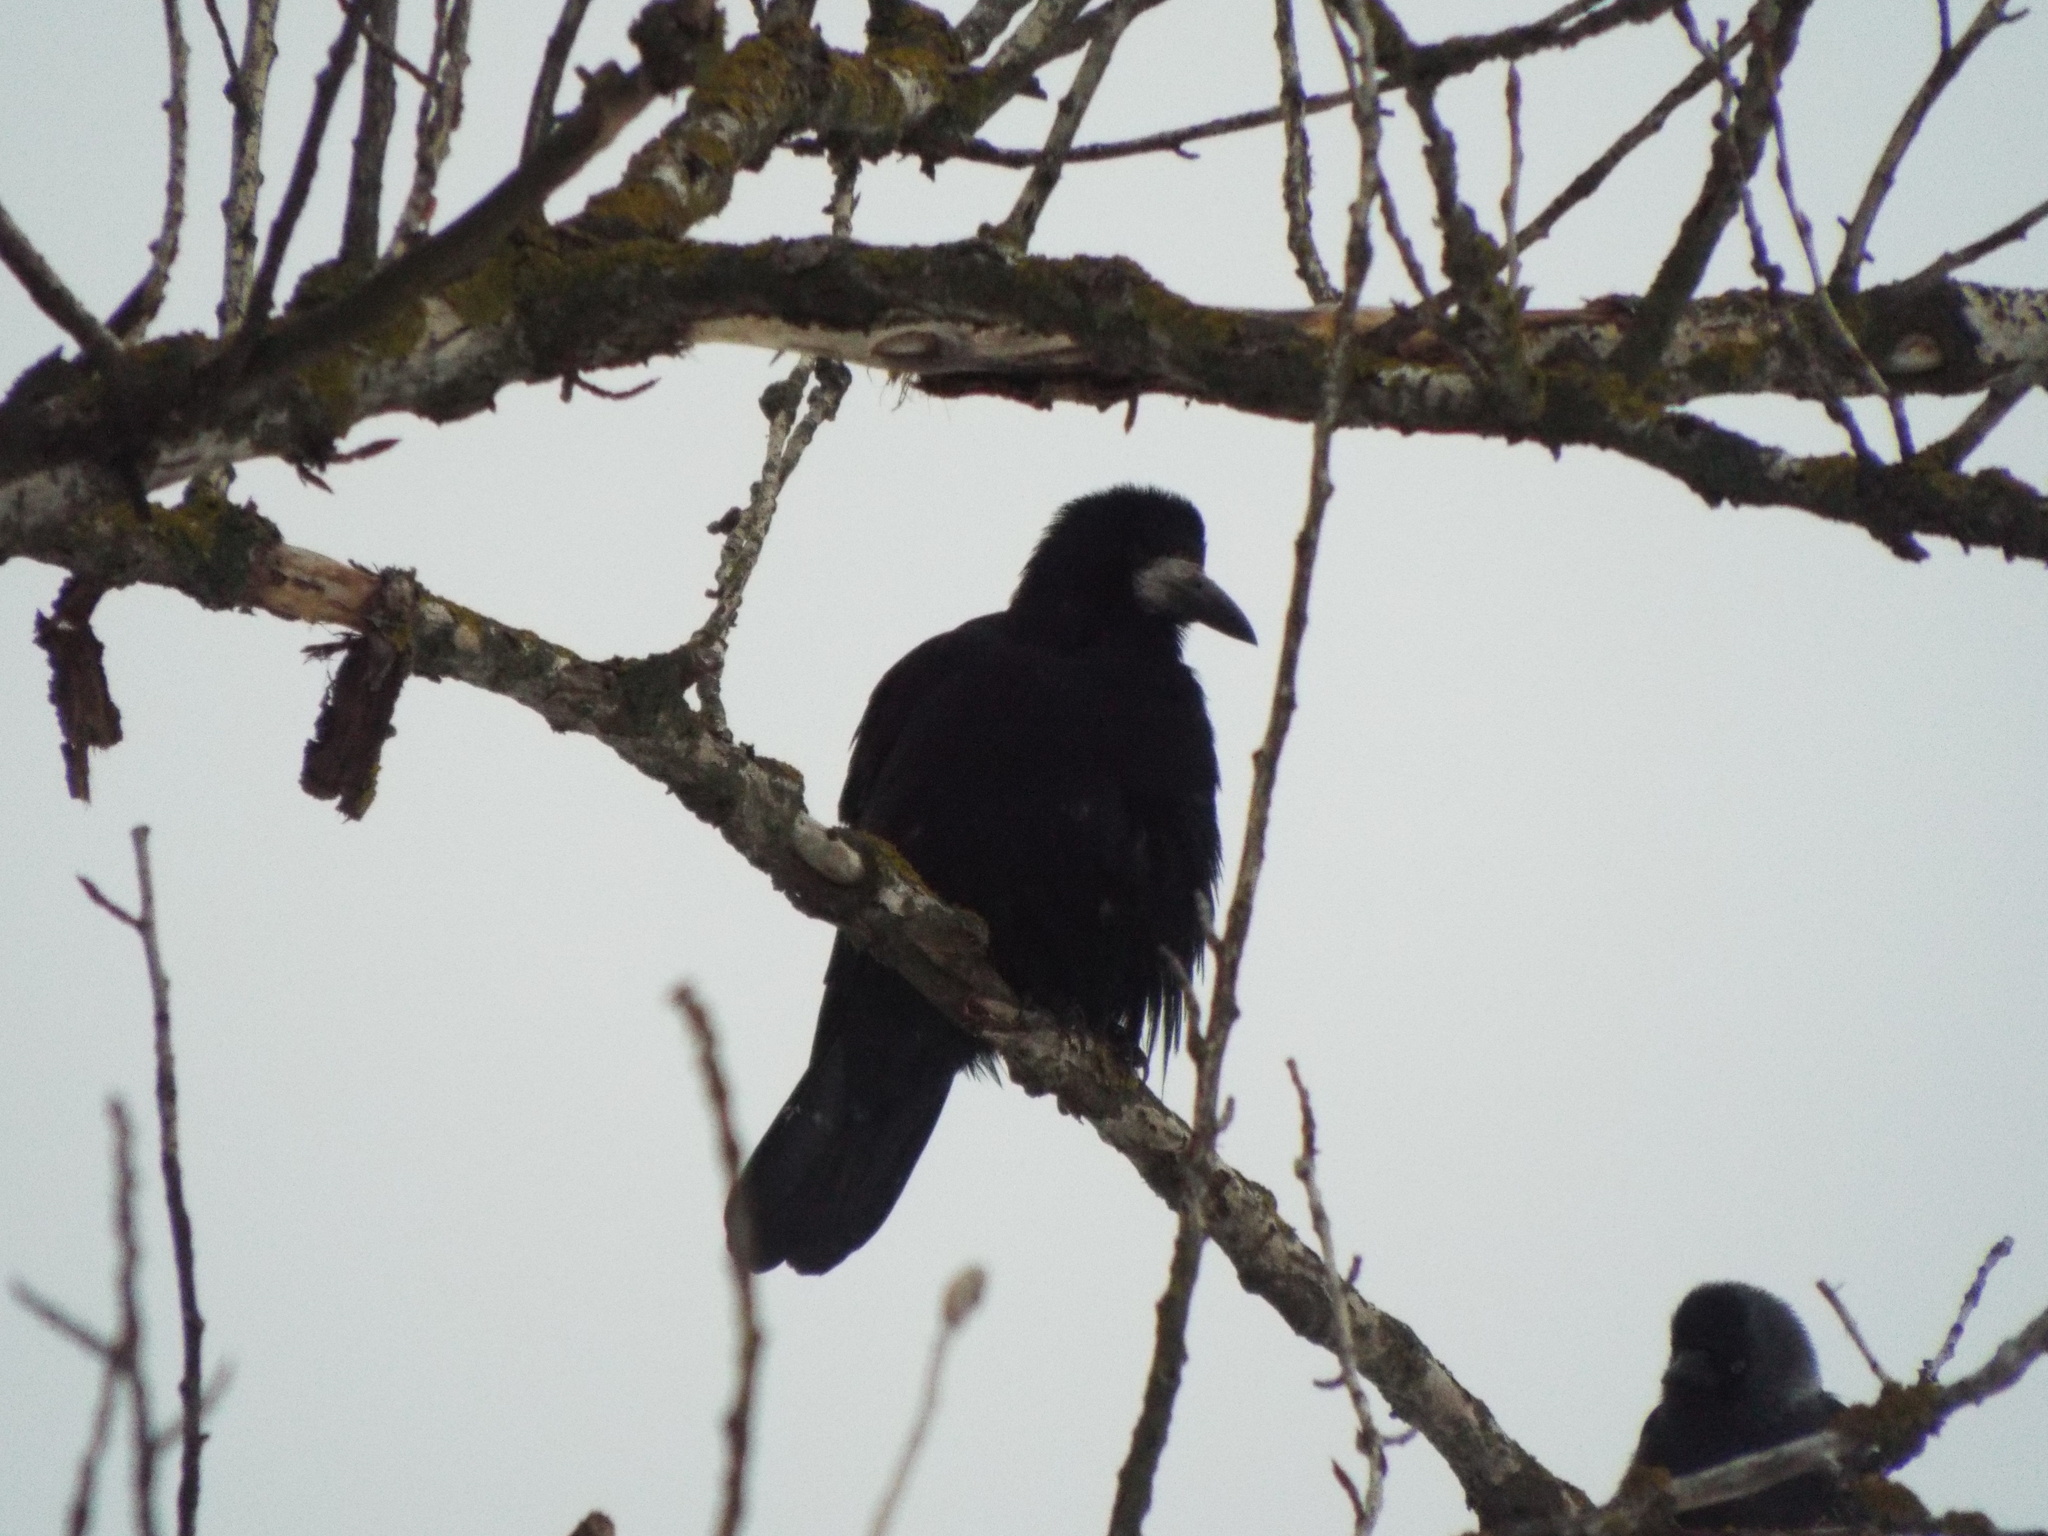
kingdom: Animalia
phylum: Chordata
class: Aves
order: Passeriformes
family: Corvidae
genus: Corvus
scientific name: Corvus frugilegus
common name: Rook
